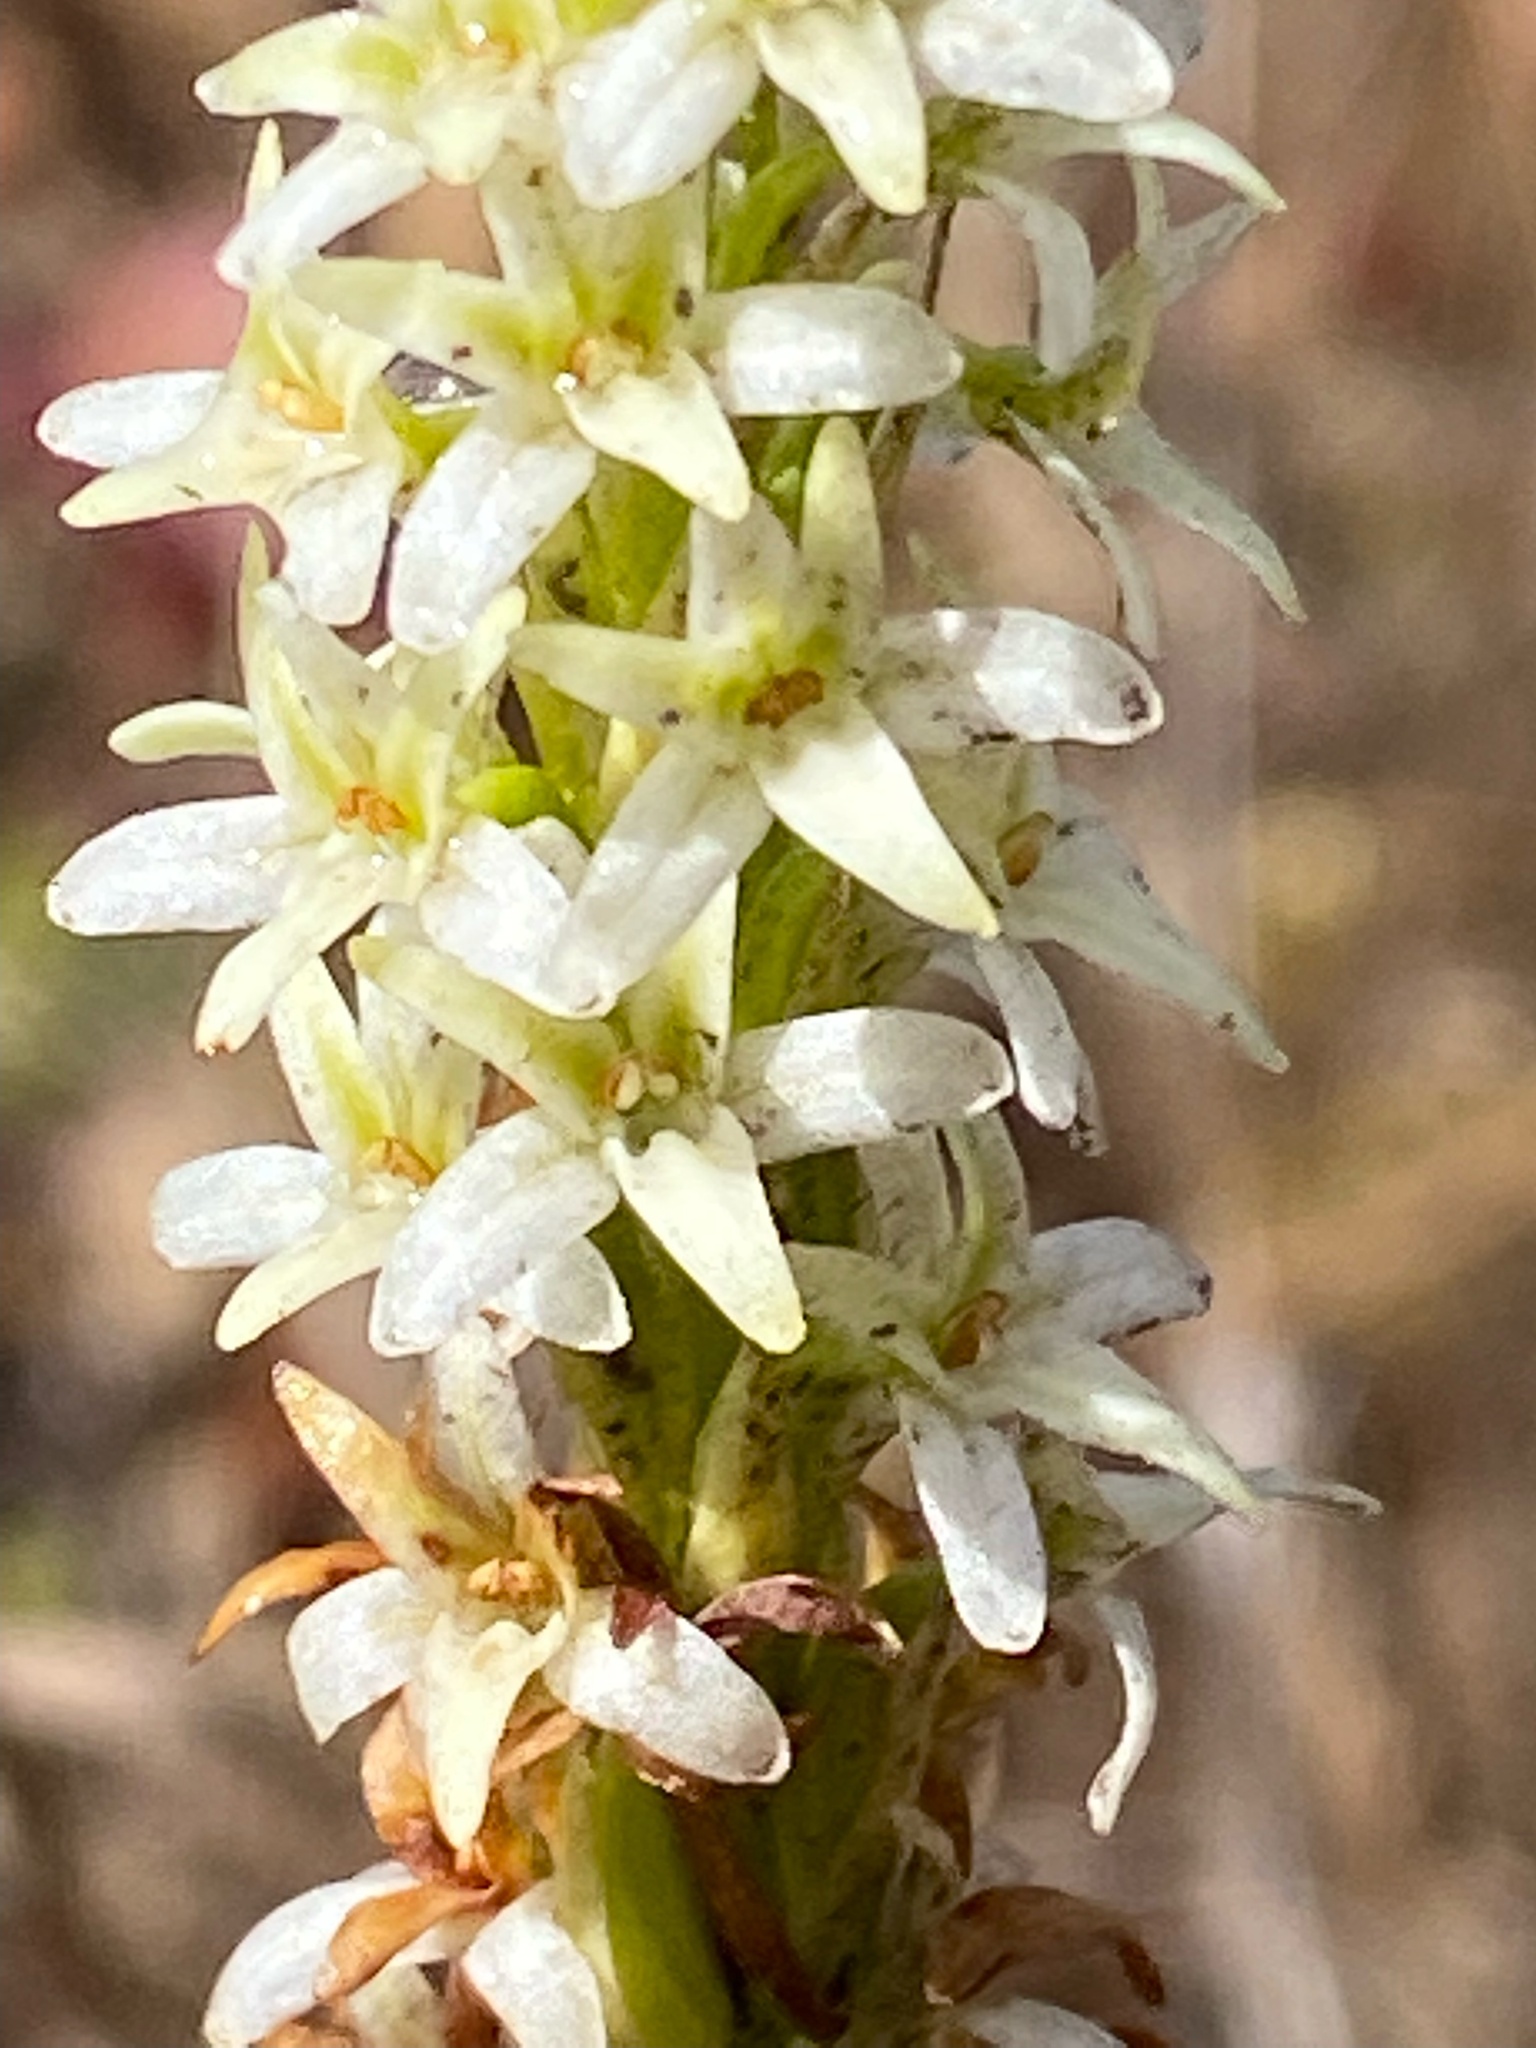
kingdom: Plantae
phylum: Tracheophyta
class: Liliopsida
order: Asparagales
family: Orchidaceae
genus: Platanthera
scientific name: Platanthera elegans
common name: Coast piperia
